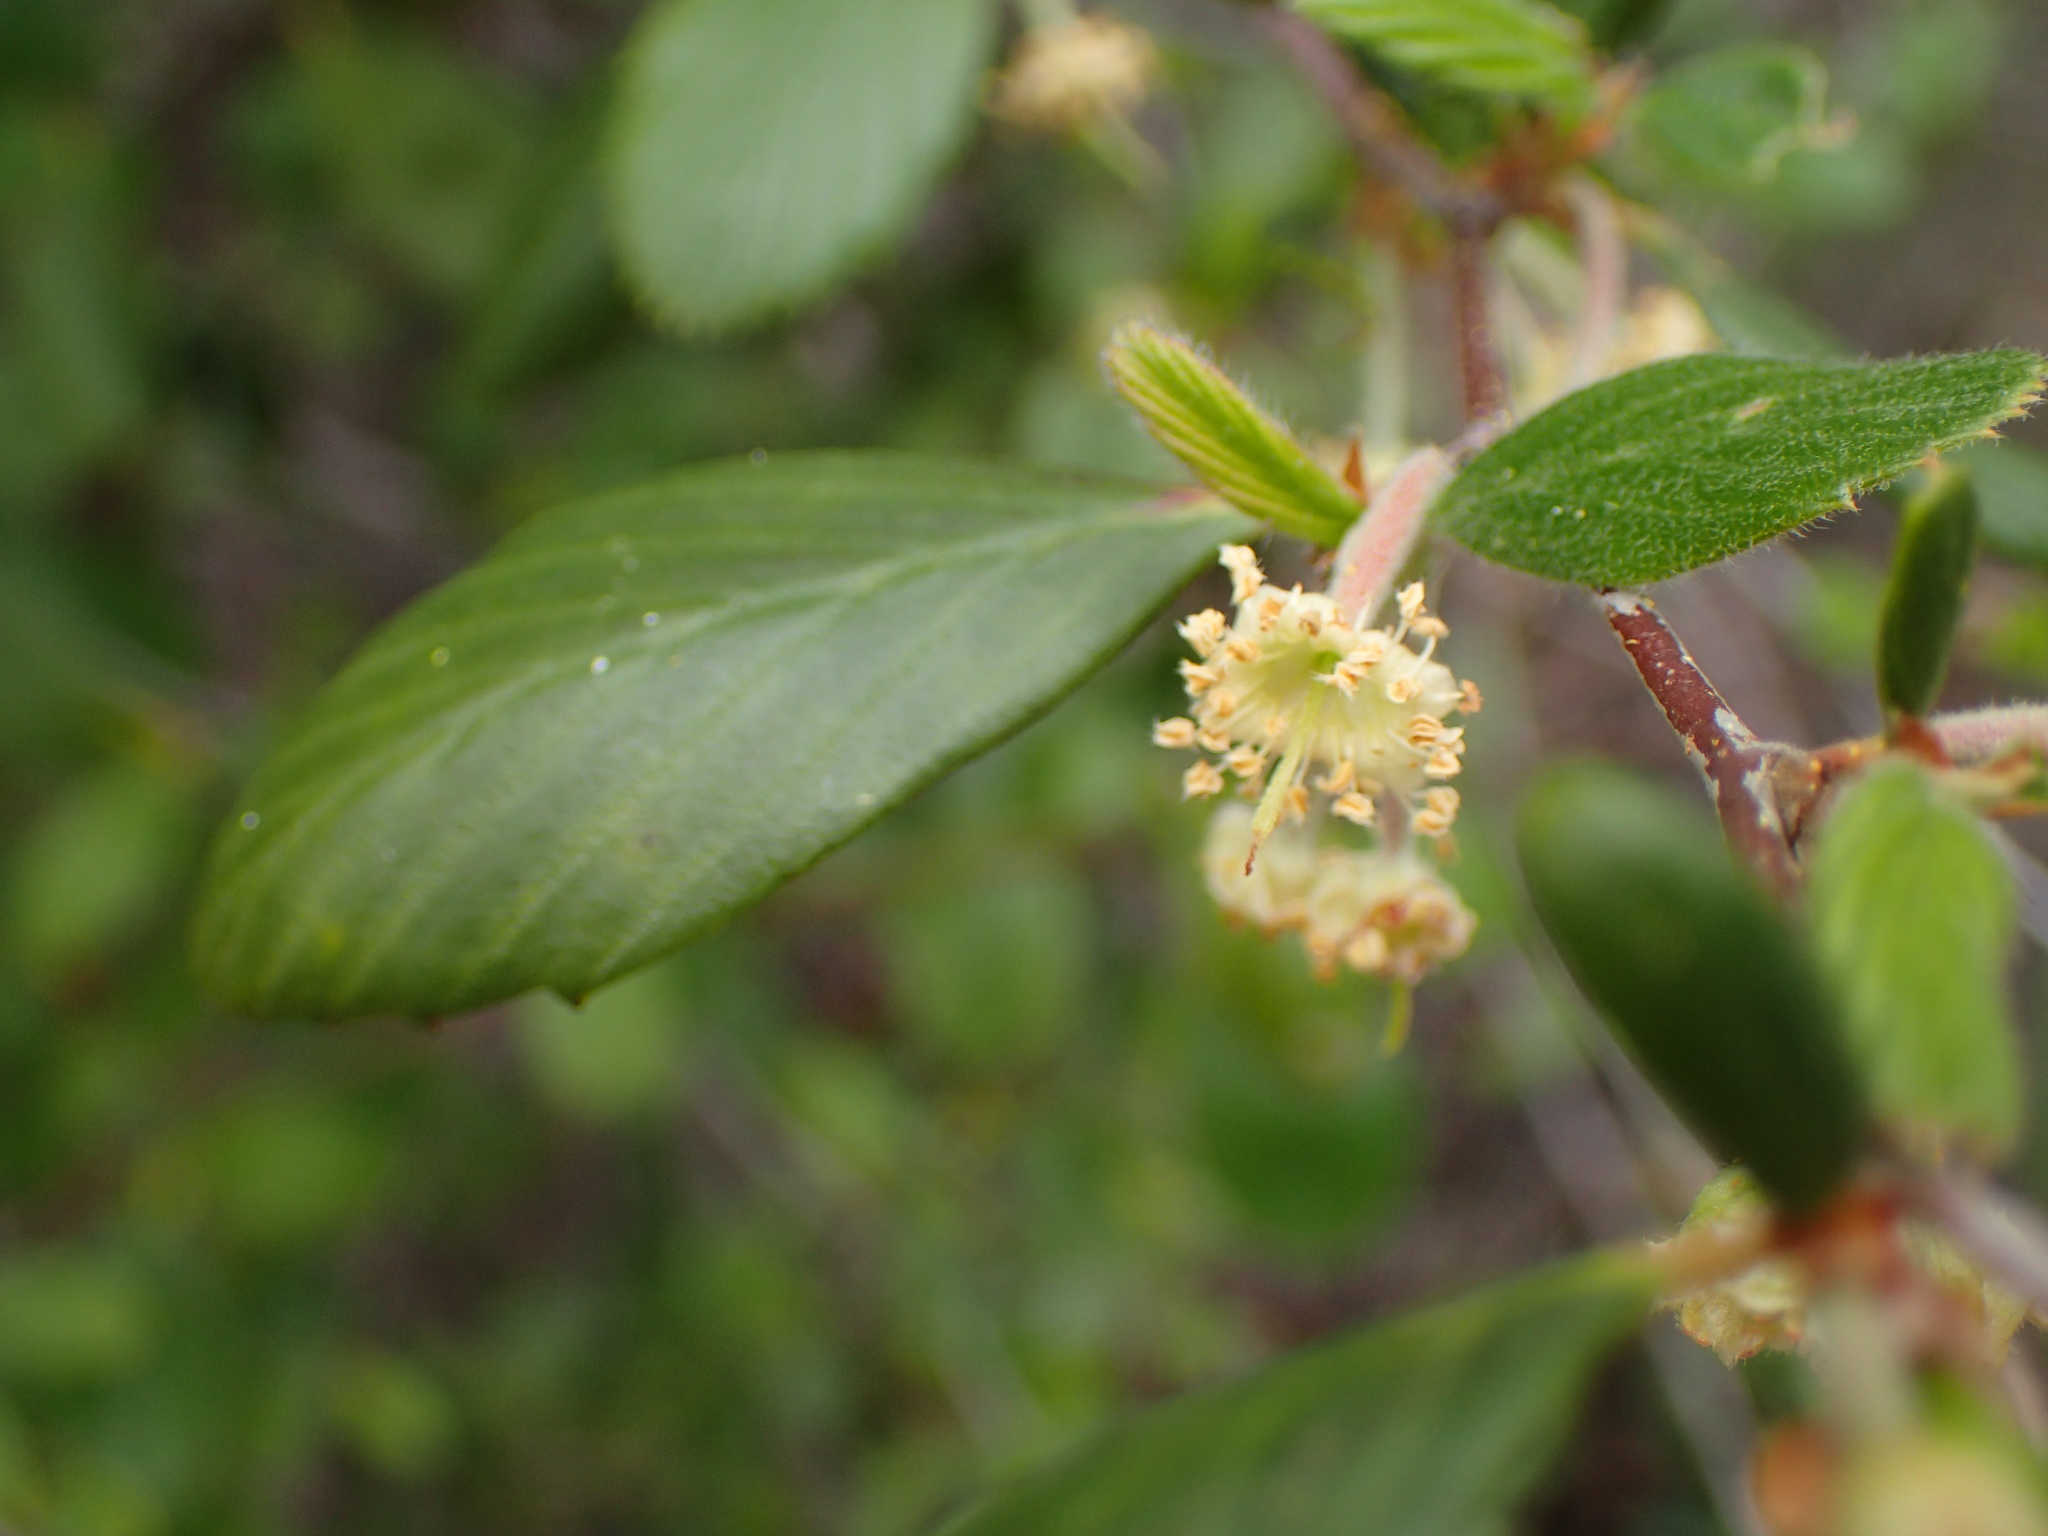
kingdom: Plantae
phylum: Tracheophyta
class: Magnoliopsida
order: Rosales
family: Rosaceae
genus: Cercocarpus
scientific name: Cercocarpus betuloides
